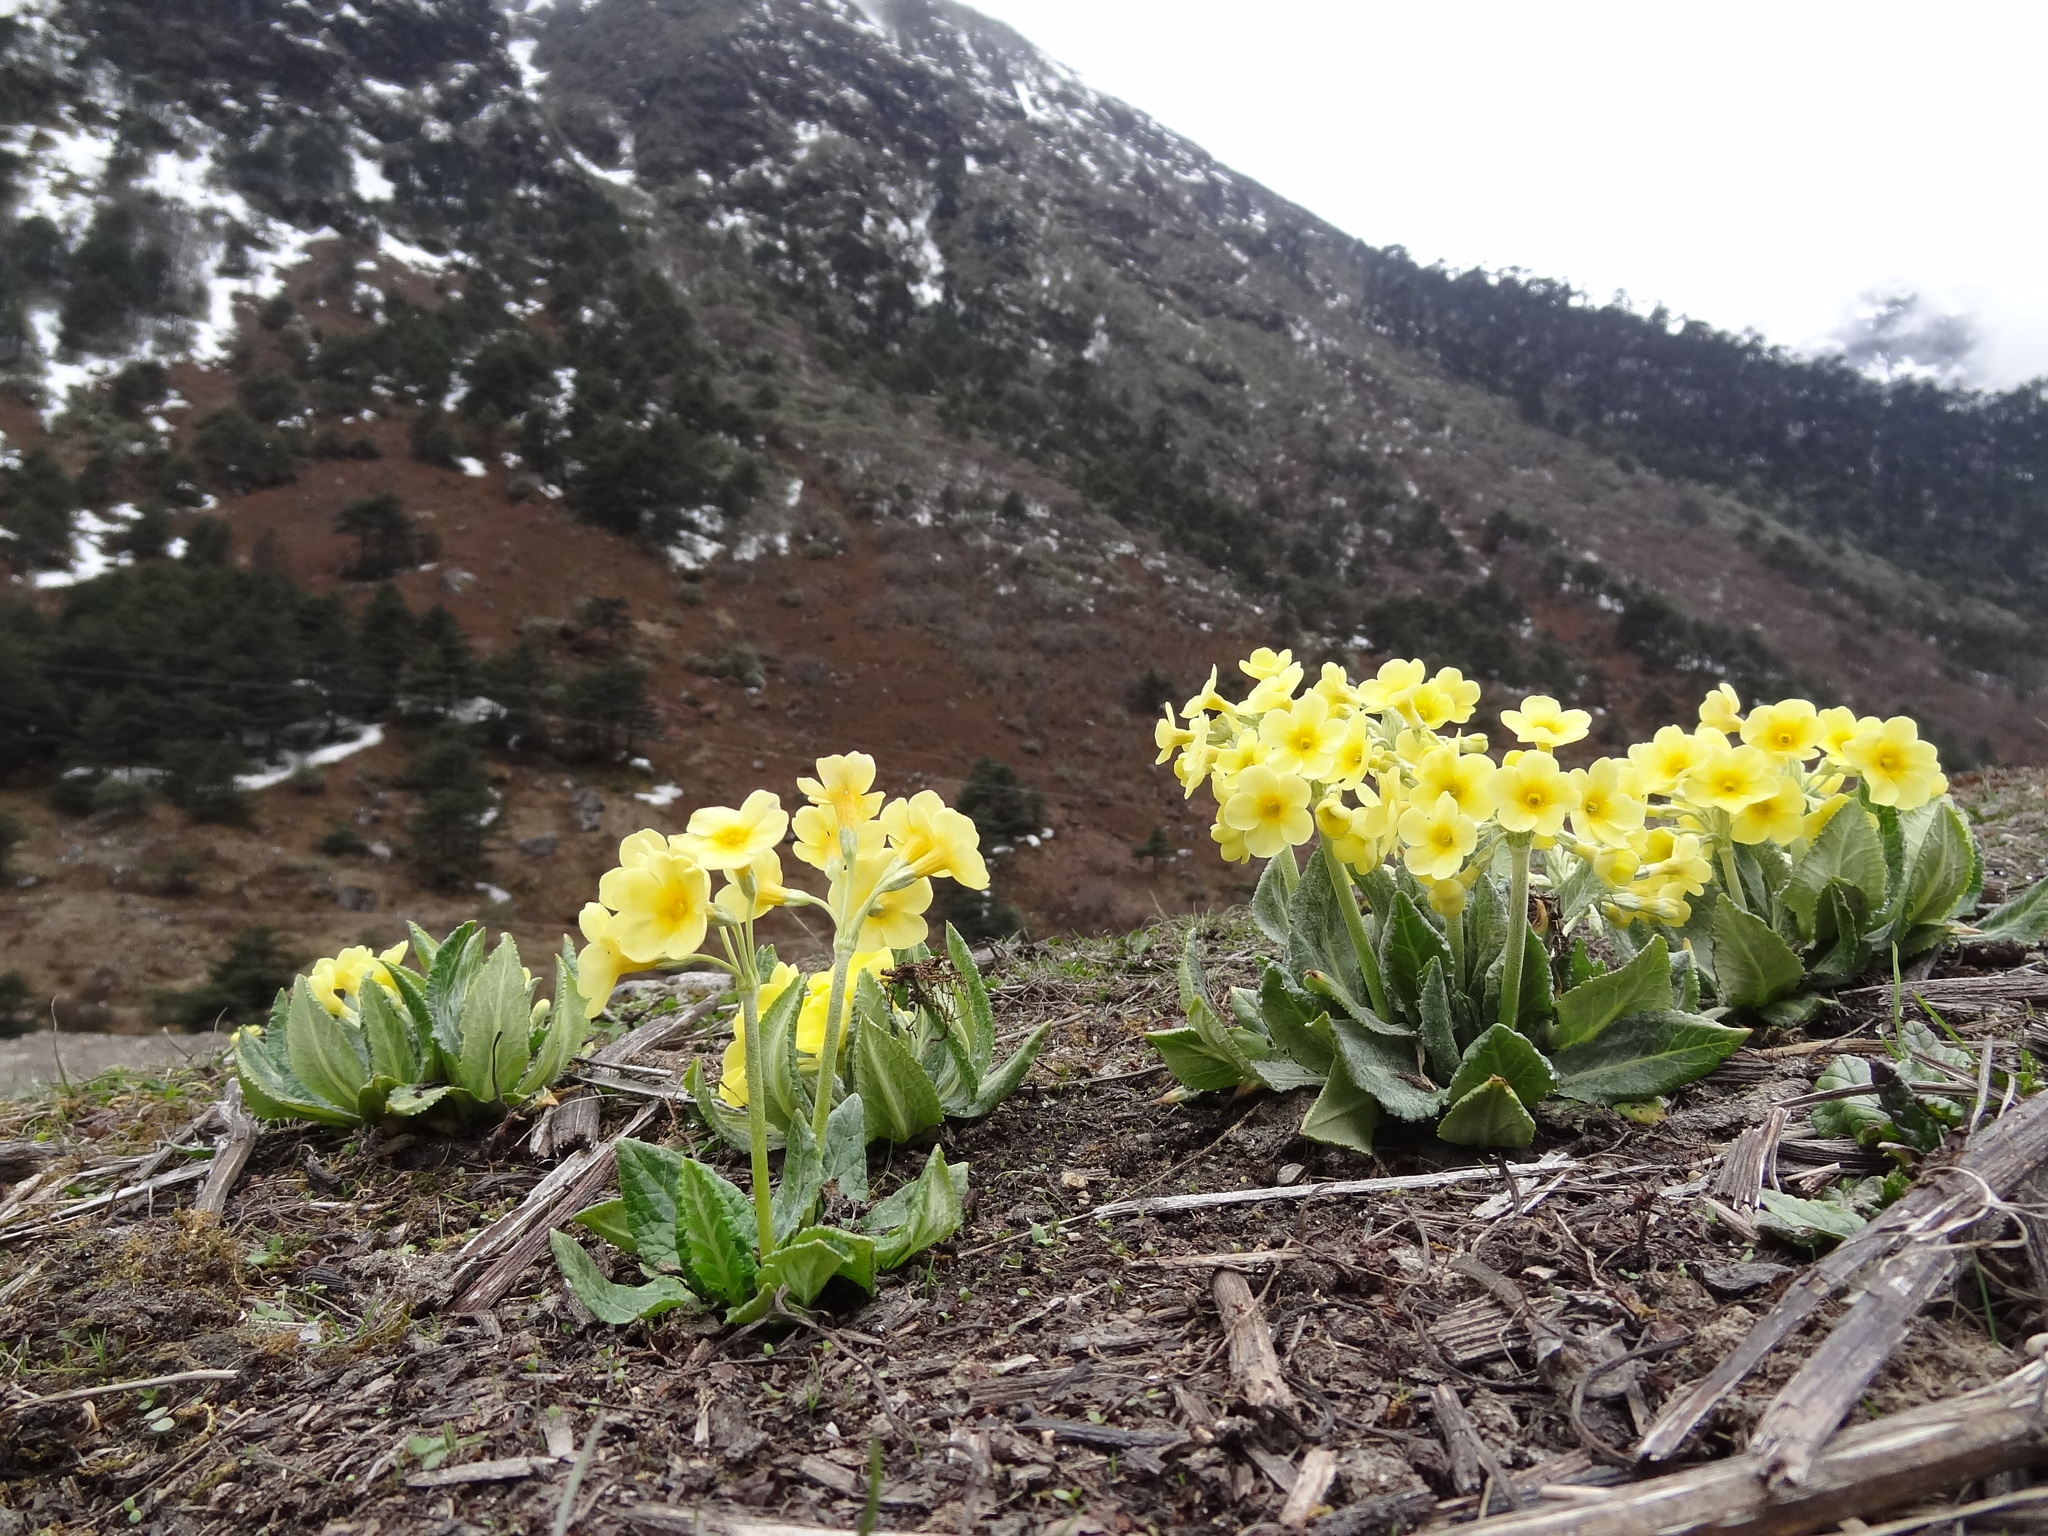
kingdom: Plantae
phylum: Tracheophyta
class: Magnoliopsida
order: Ericales
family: Primulaceae
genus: Primula
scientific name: Primula strumosa
